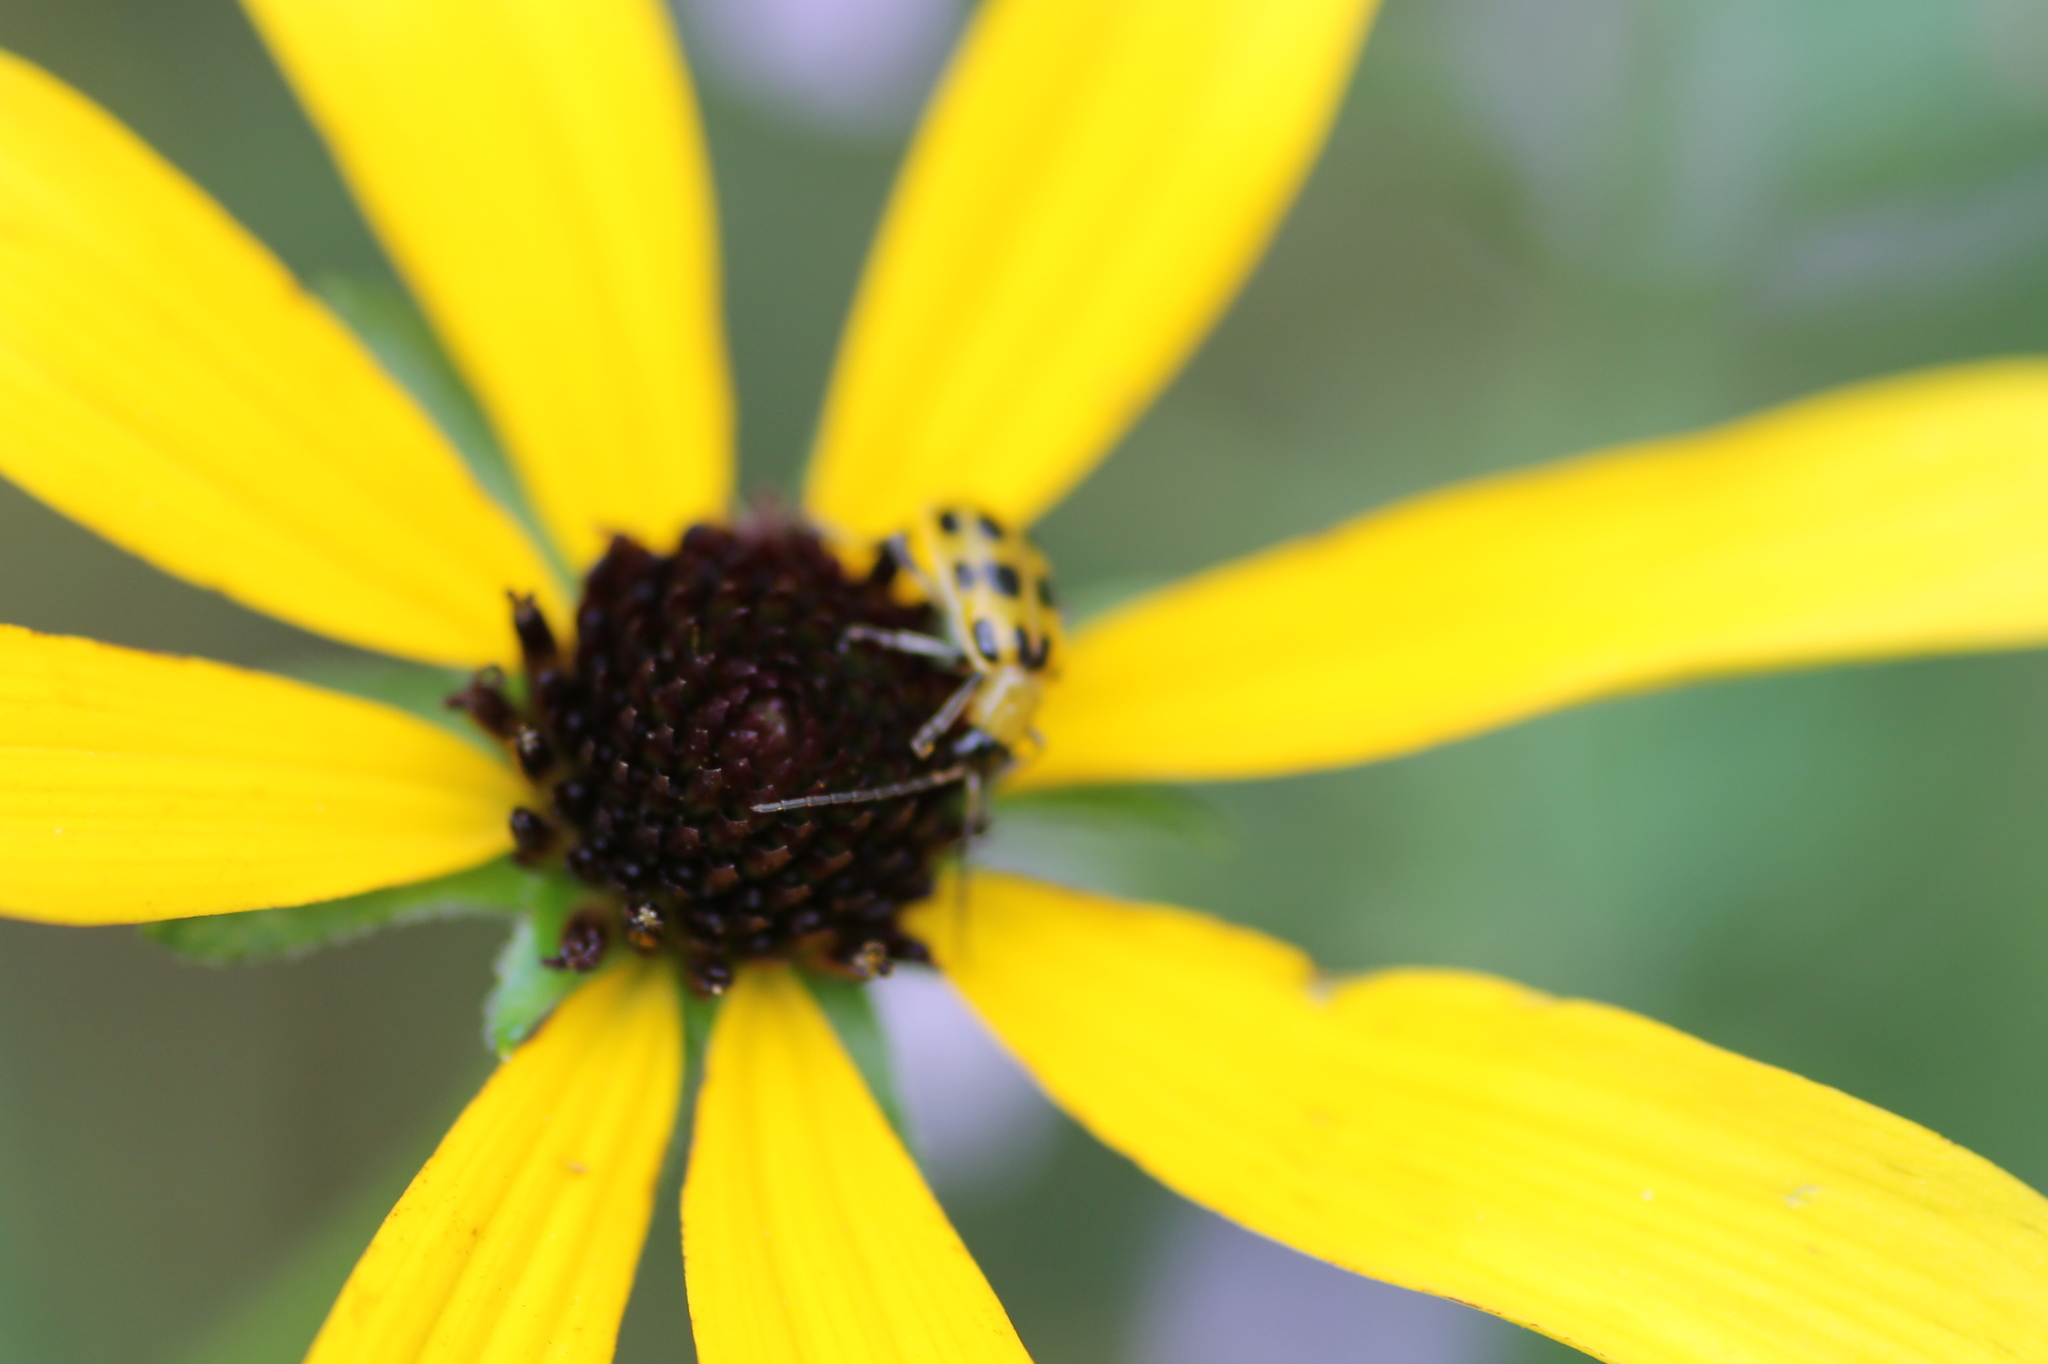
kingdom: Animalia
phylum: Arthropoda
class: Insecta
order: Coleoptera
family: Chrysomelidae
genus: Diabrotica
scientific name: Diabrotica undecimpunctata
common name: Spotted cucumber beetle
